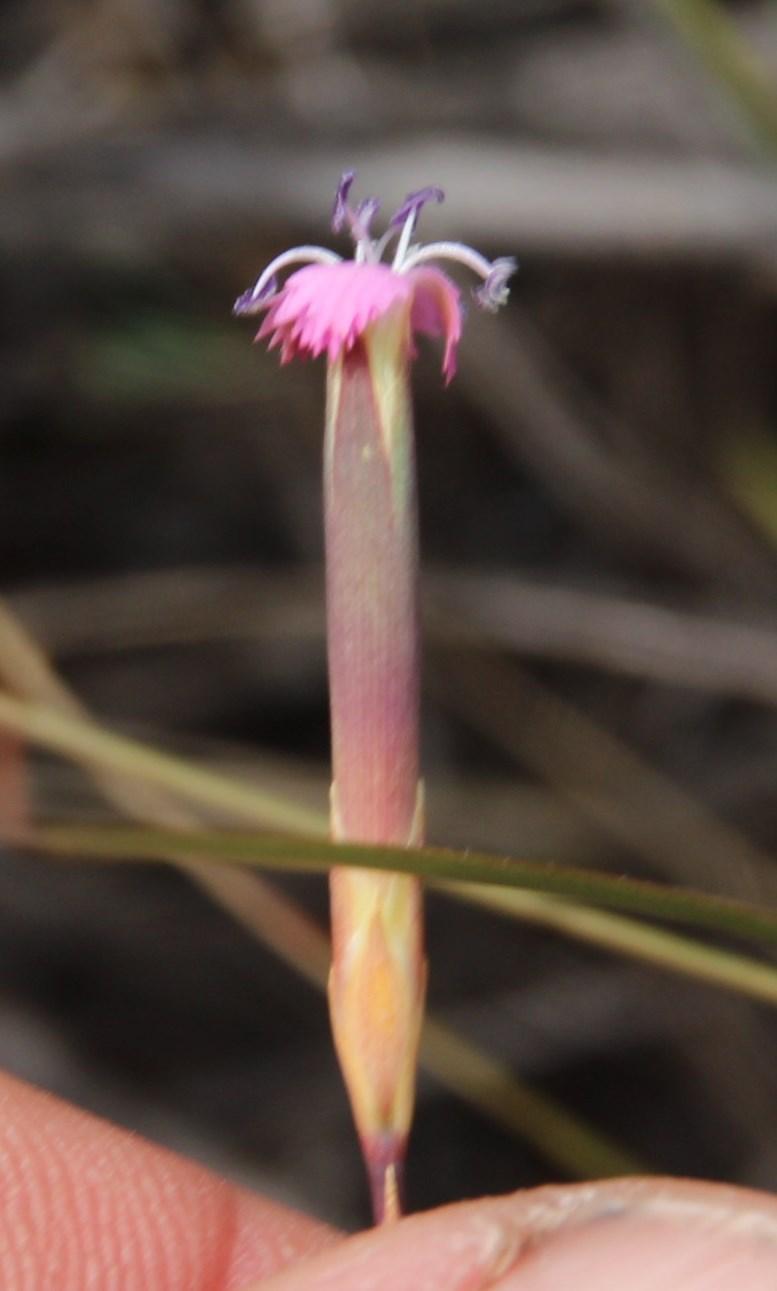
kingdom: Plantae
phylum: Tracheophyta
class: Magnoliopsida
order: Caryophyllales
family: Caryophyllaceae
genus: Dianthus
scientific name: Dianthus micropetalus
